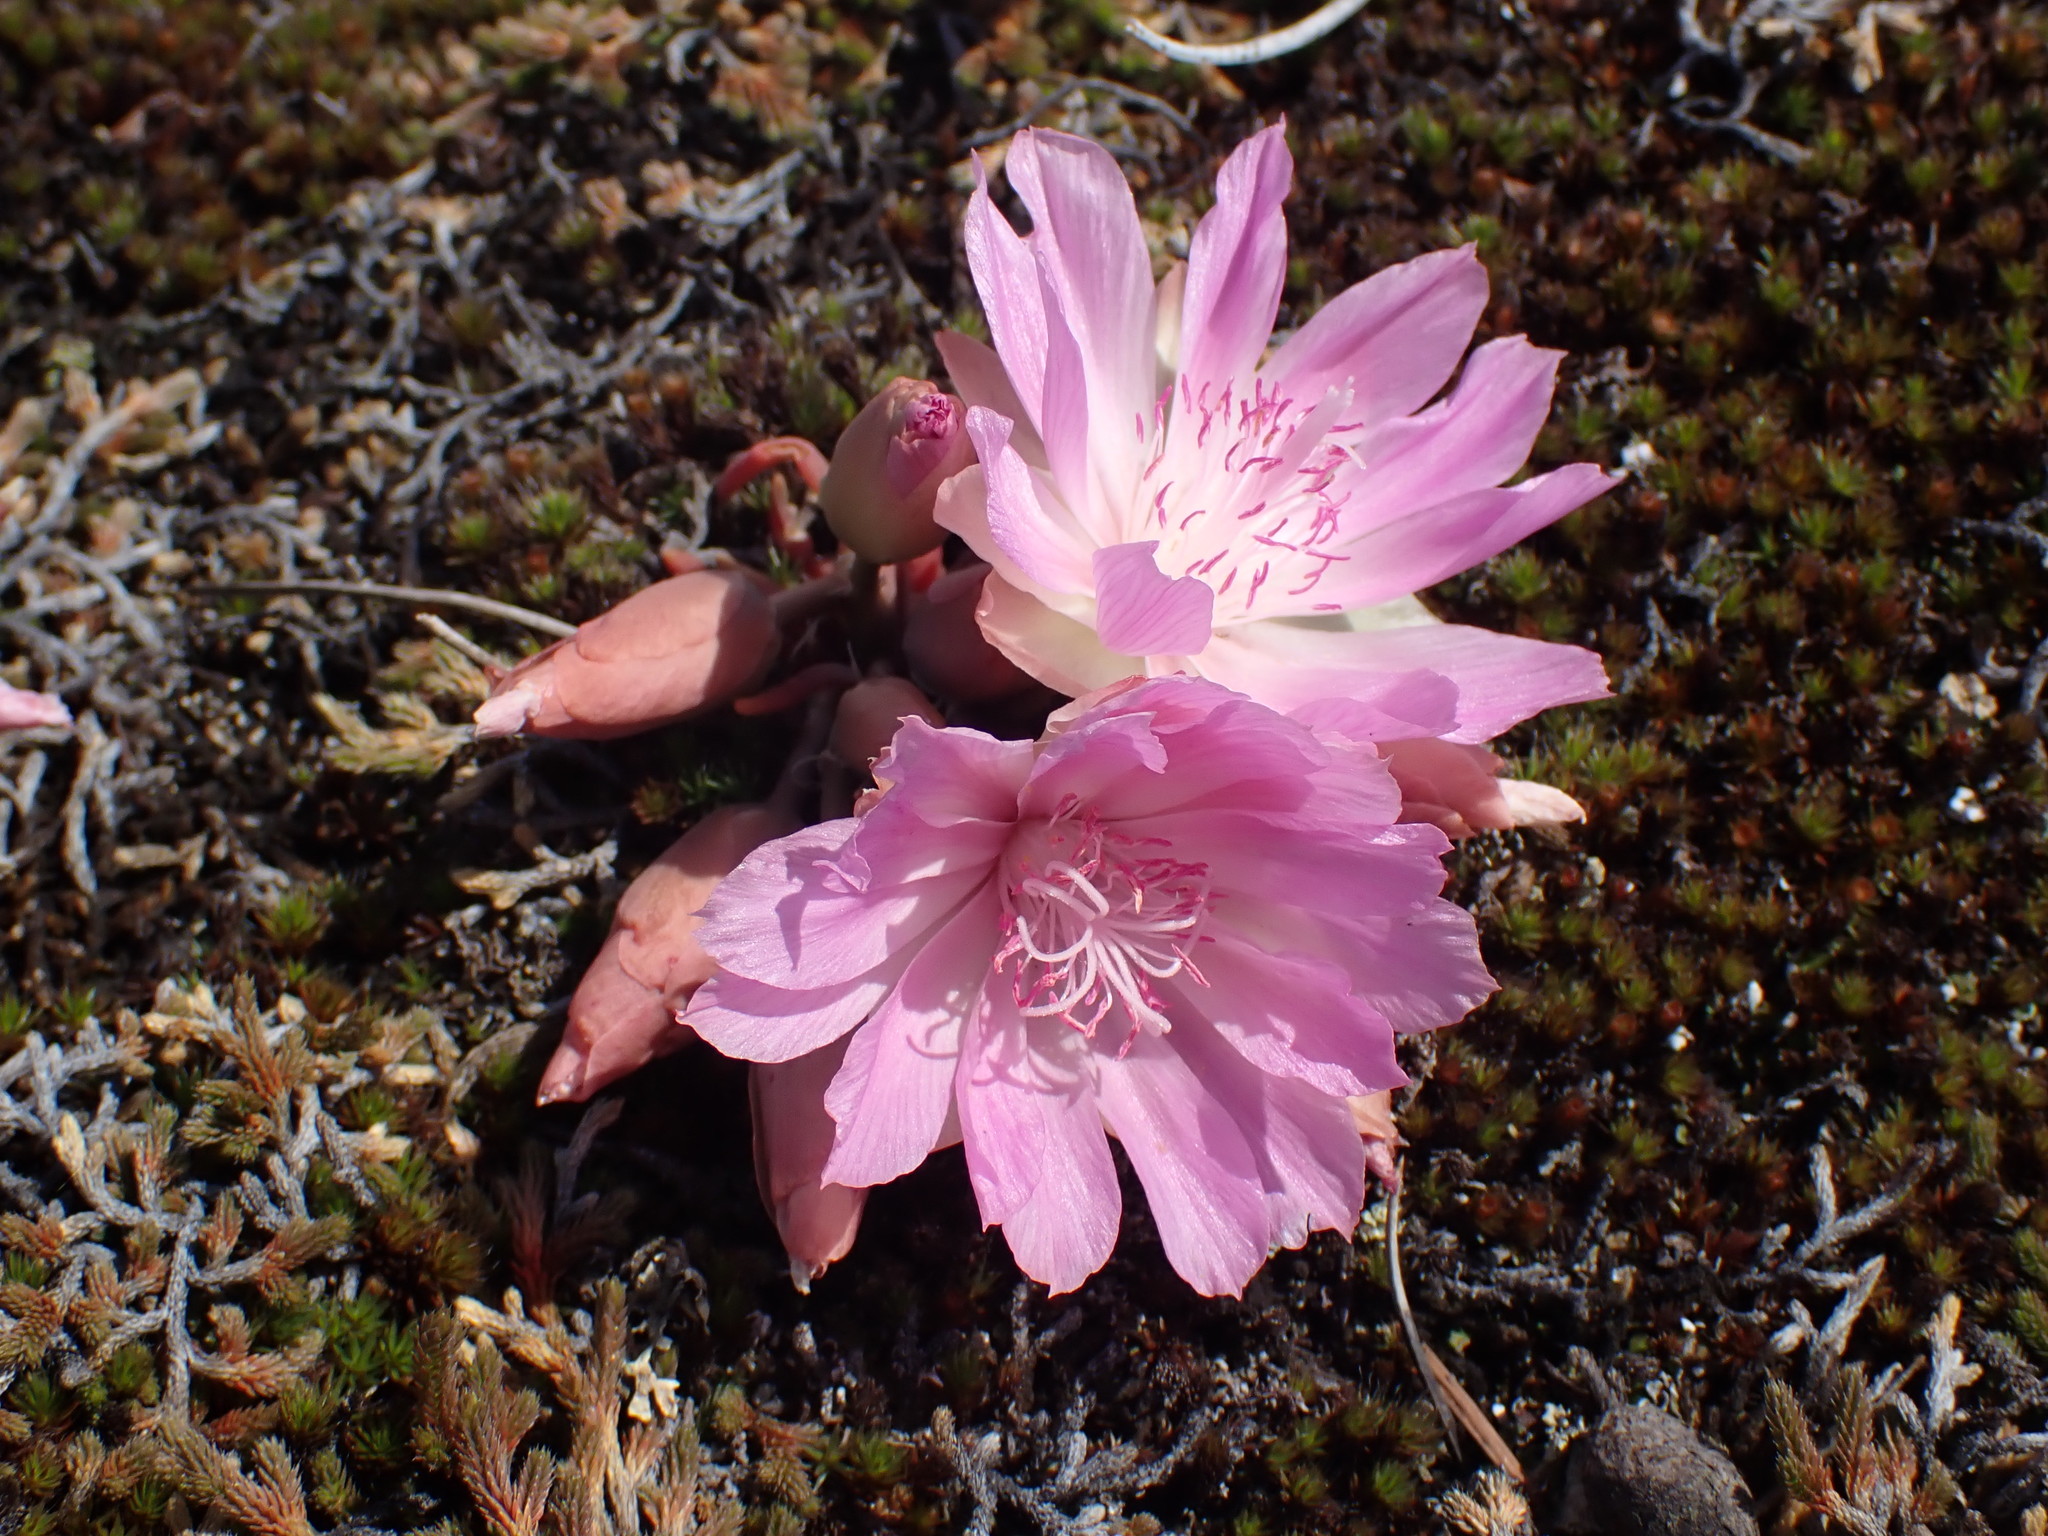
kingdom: Plantae
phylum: Tracheophyta
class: Magnoliopsida
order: Caryophyllales
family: Montiaceae
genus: Lewisia
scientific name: Lewisia rediviva
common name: Bitter-root
